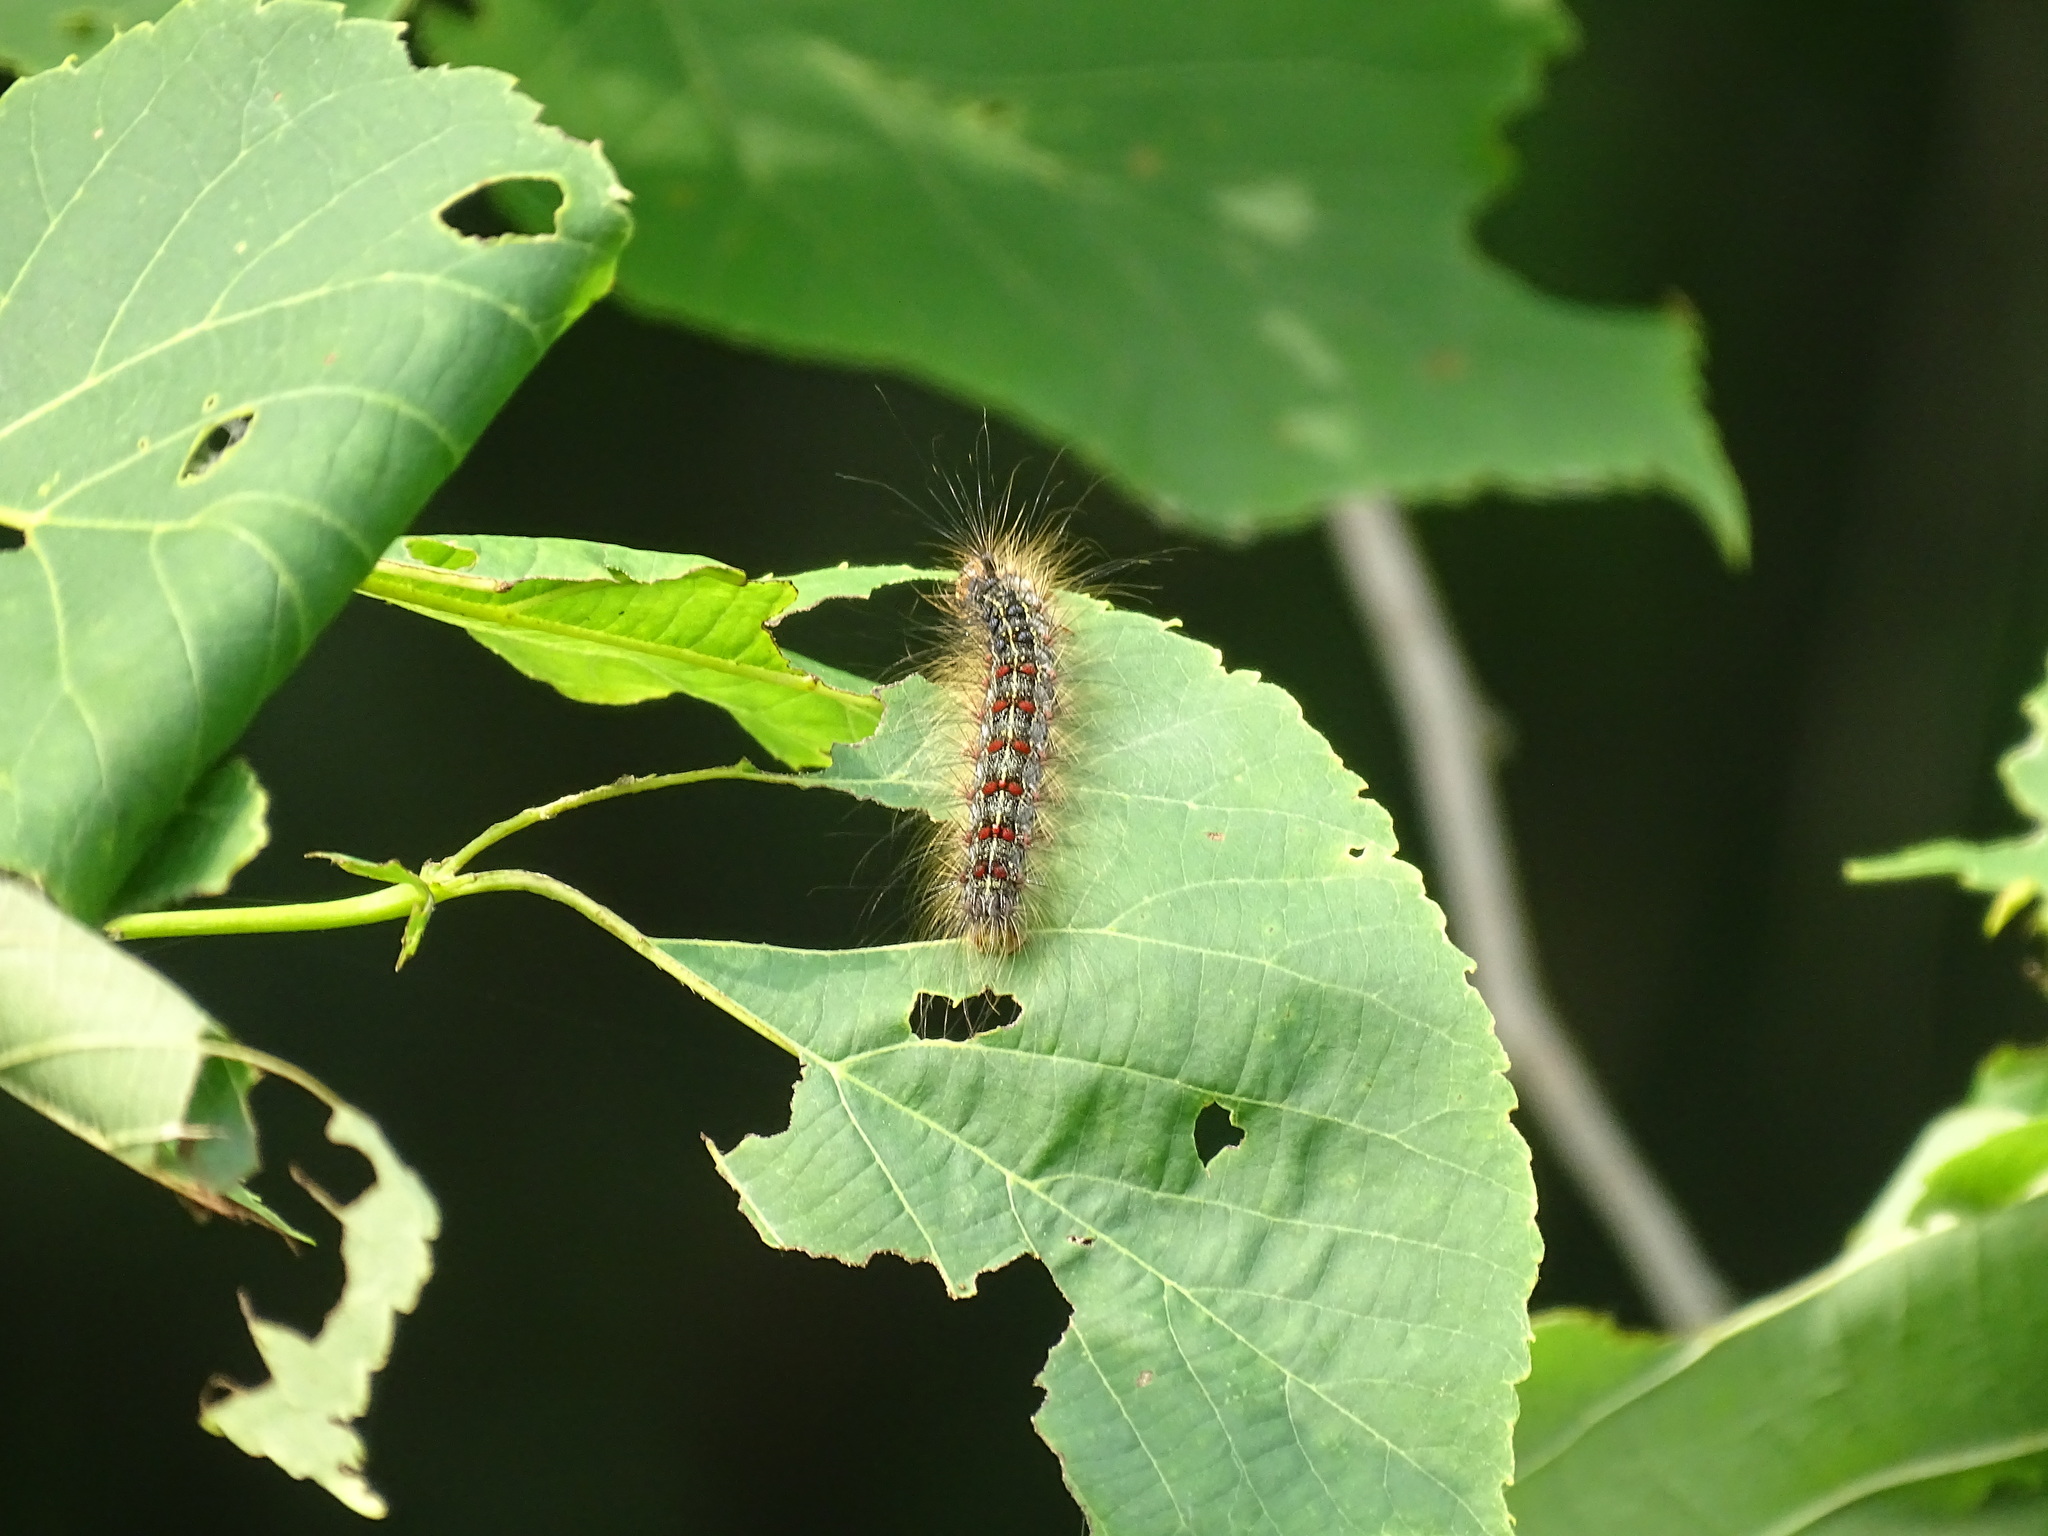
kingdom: Animalia
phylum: Arthropoda
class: Insecta
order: Lepidoptera
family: Erebidae
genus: Lymantria
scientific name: Lymantria dispar
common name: Gypsy moth
